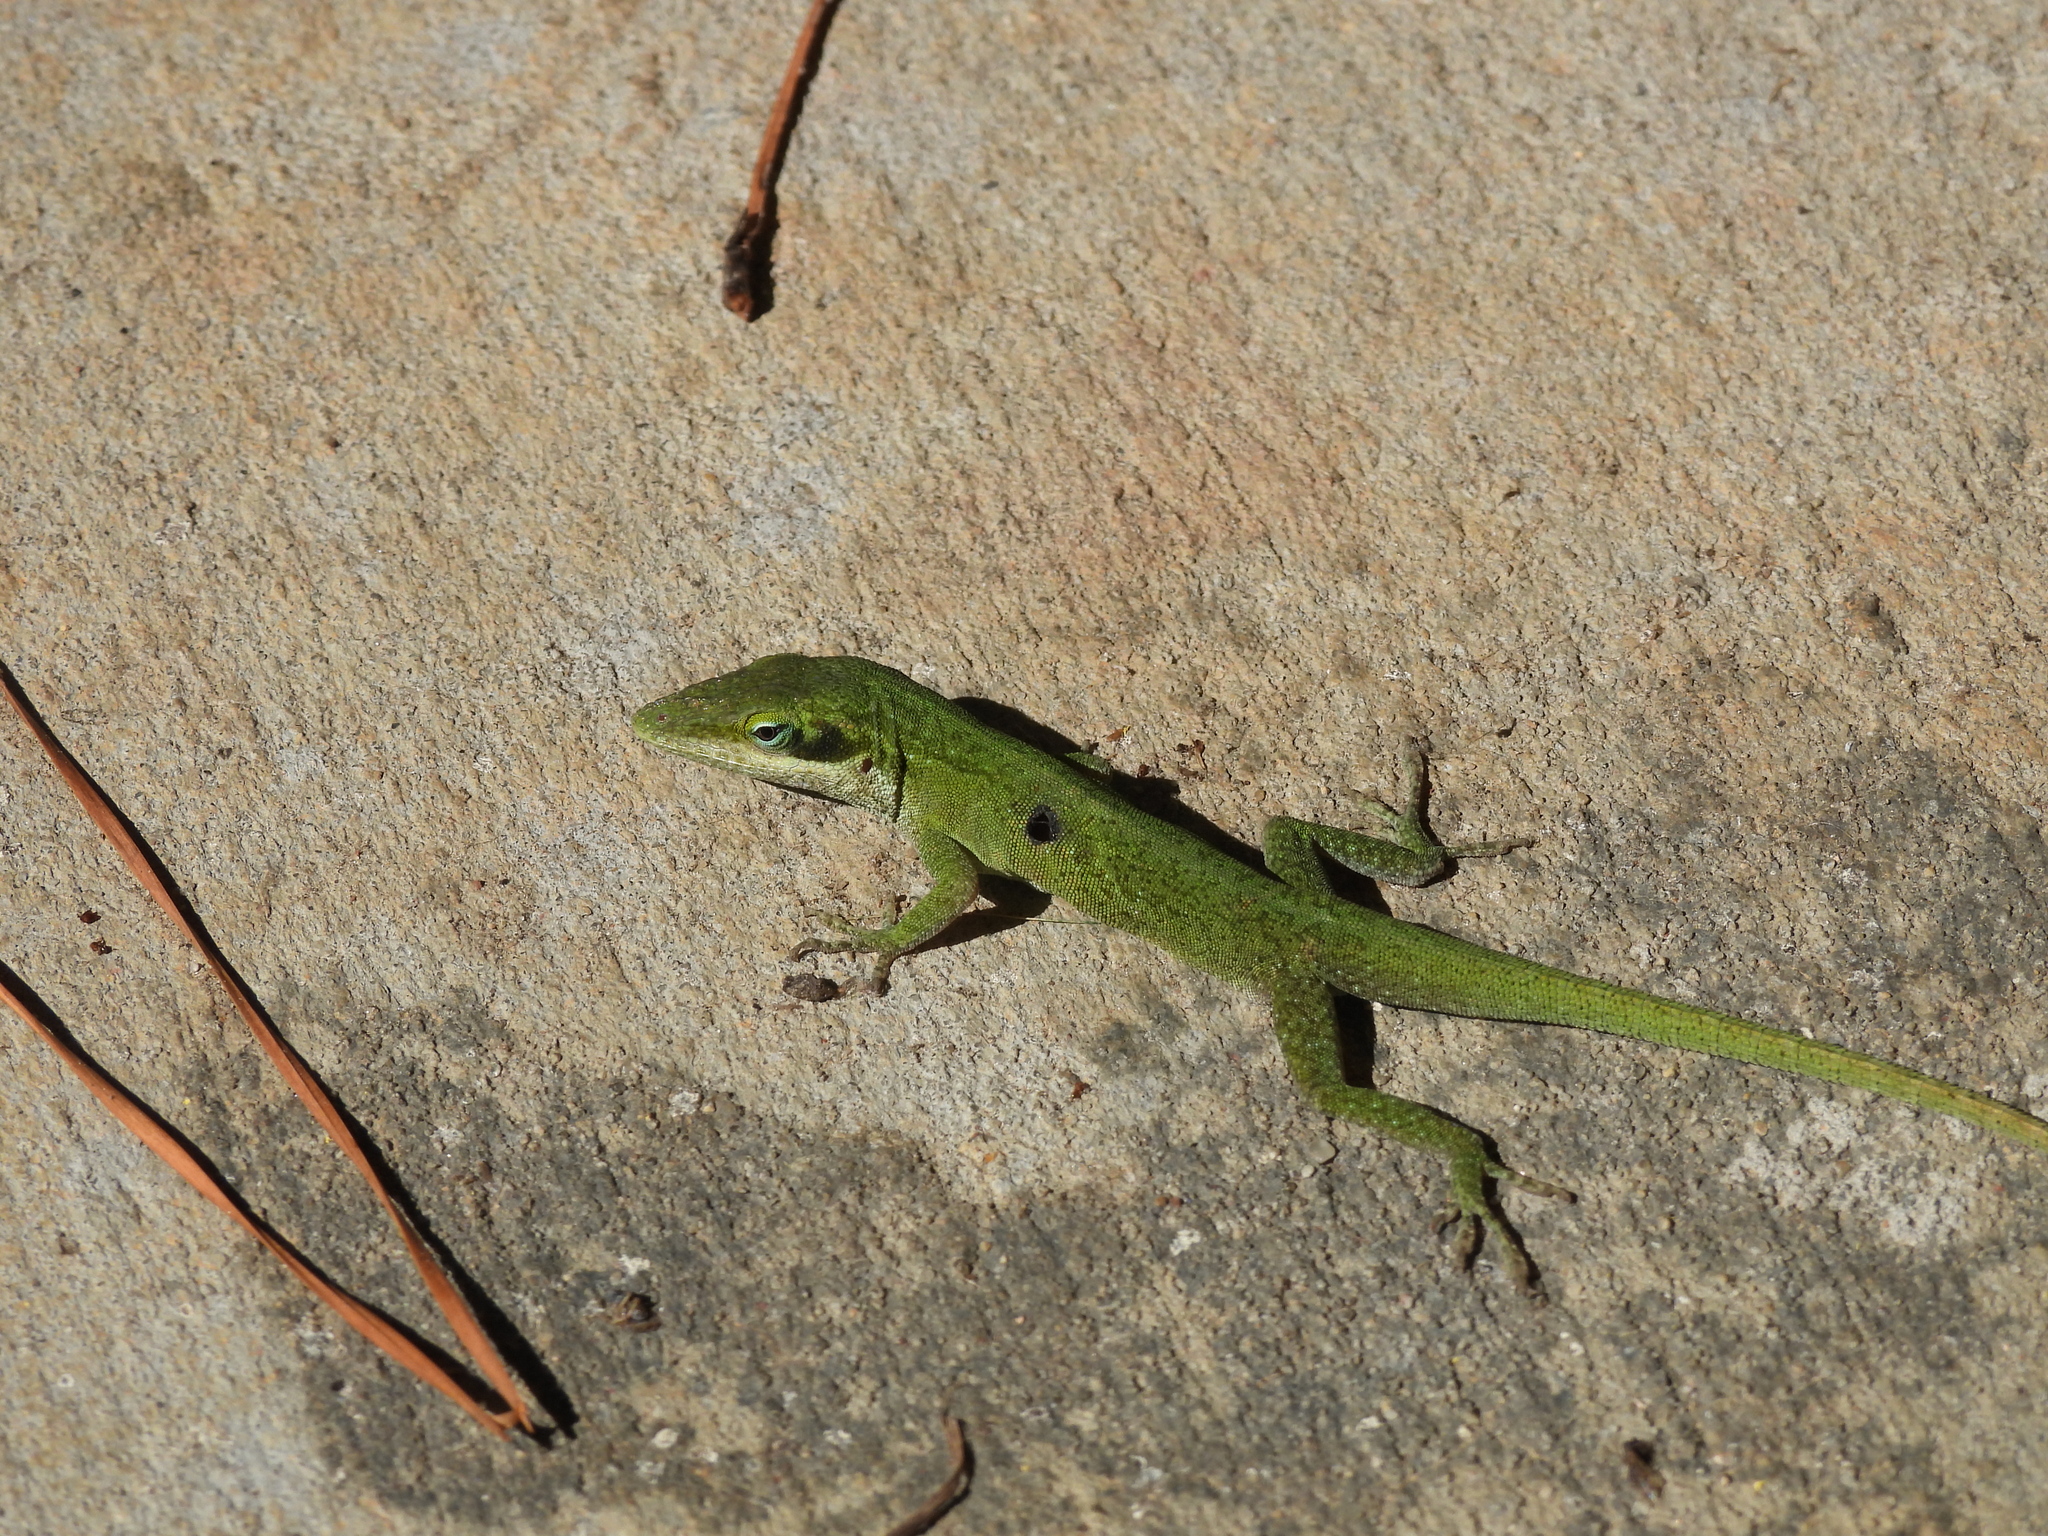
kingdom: Animalia
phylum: Chordata
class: Squamata
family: Dactyloidae
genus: Anolis
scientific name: Anolis carolinensis
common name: Green anole
